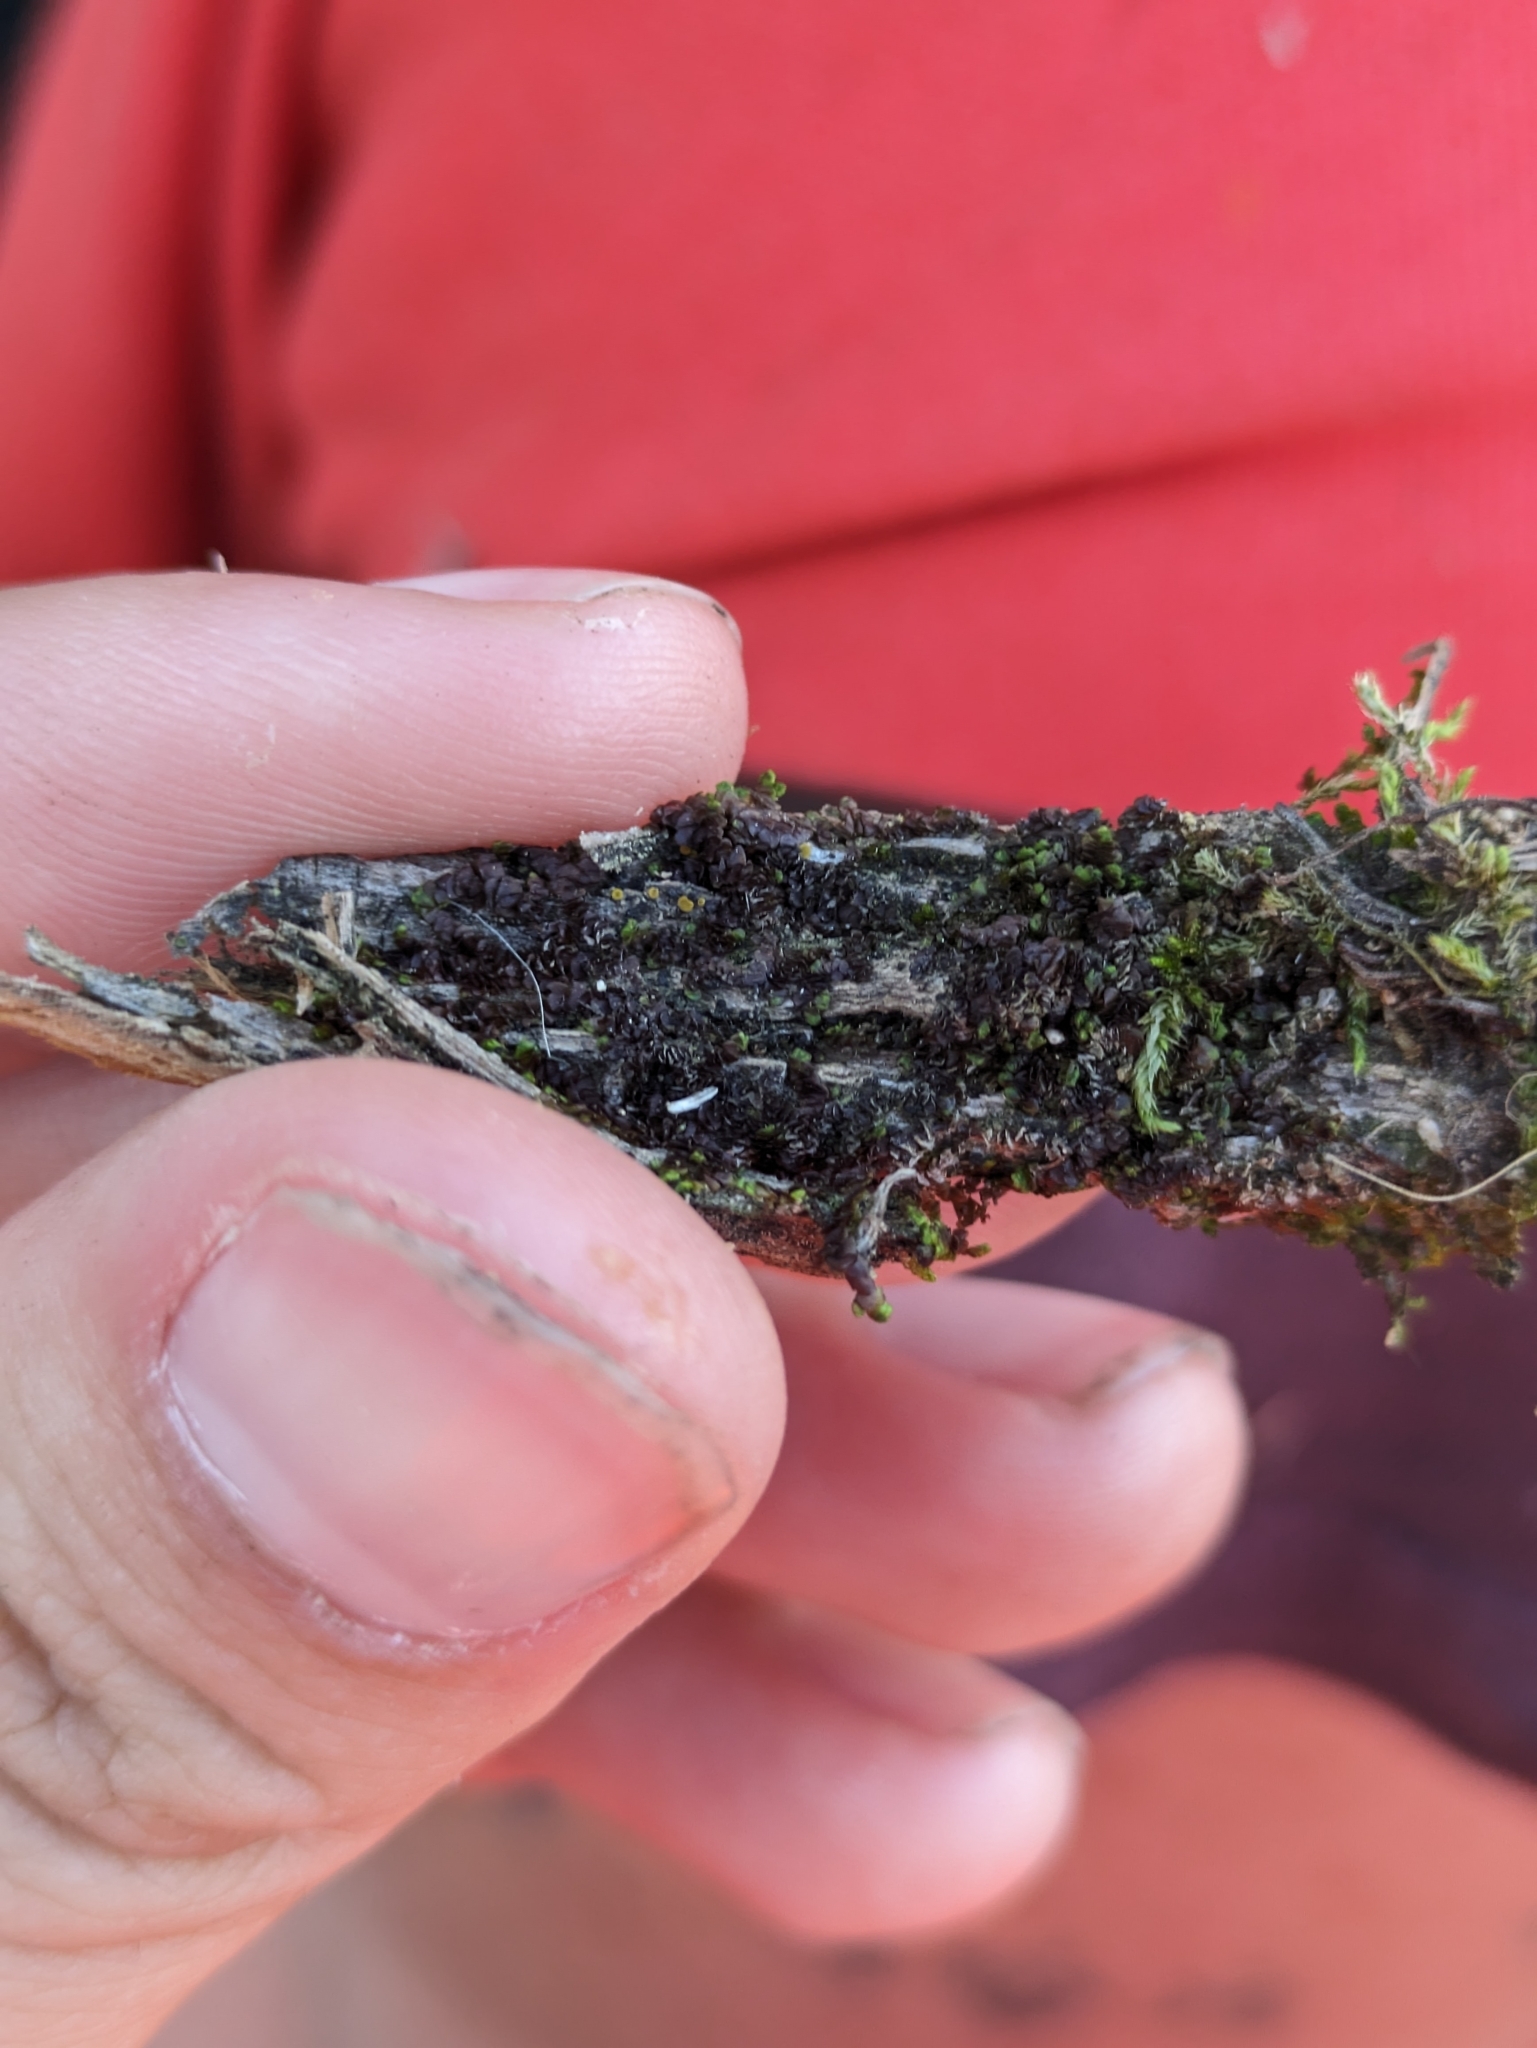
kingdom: Plantae
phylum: Marchantiophyta
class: Jungermanniopsida
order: Porellales
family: Frullaniaceae
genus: Frullania
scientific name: Frullania catalinae
